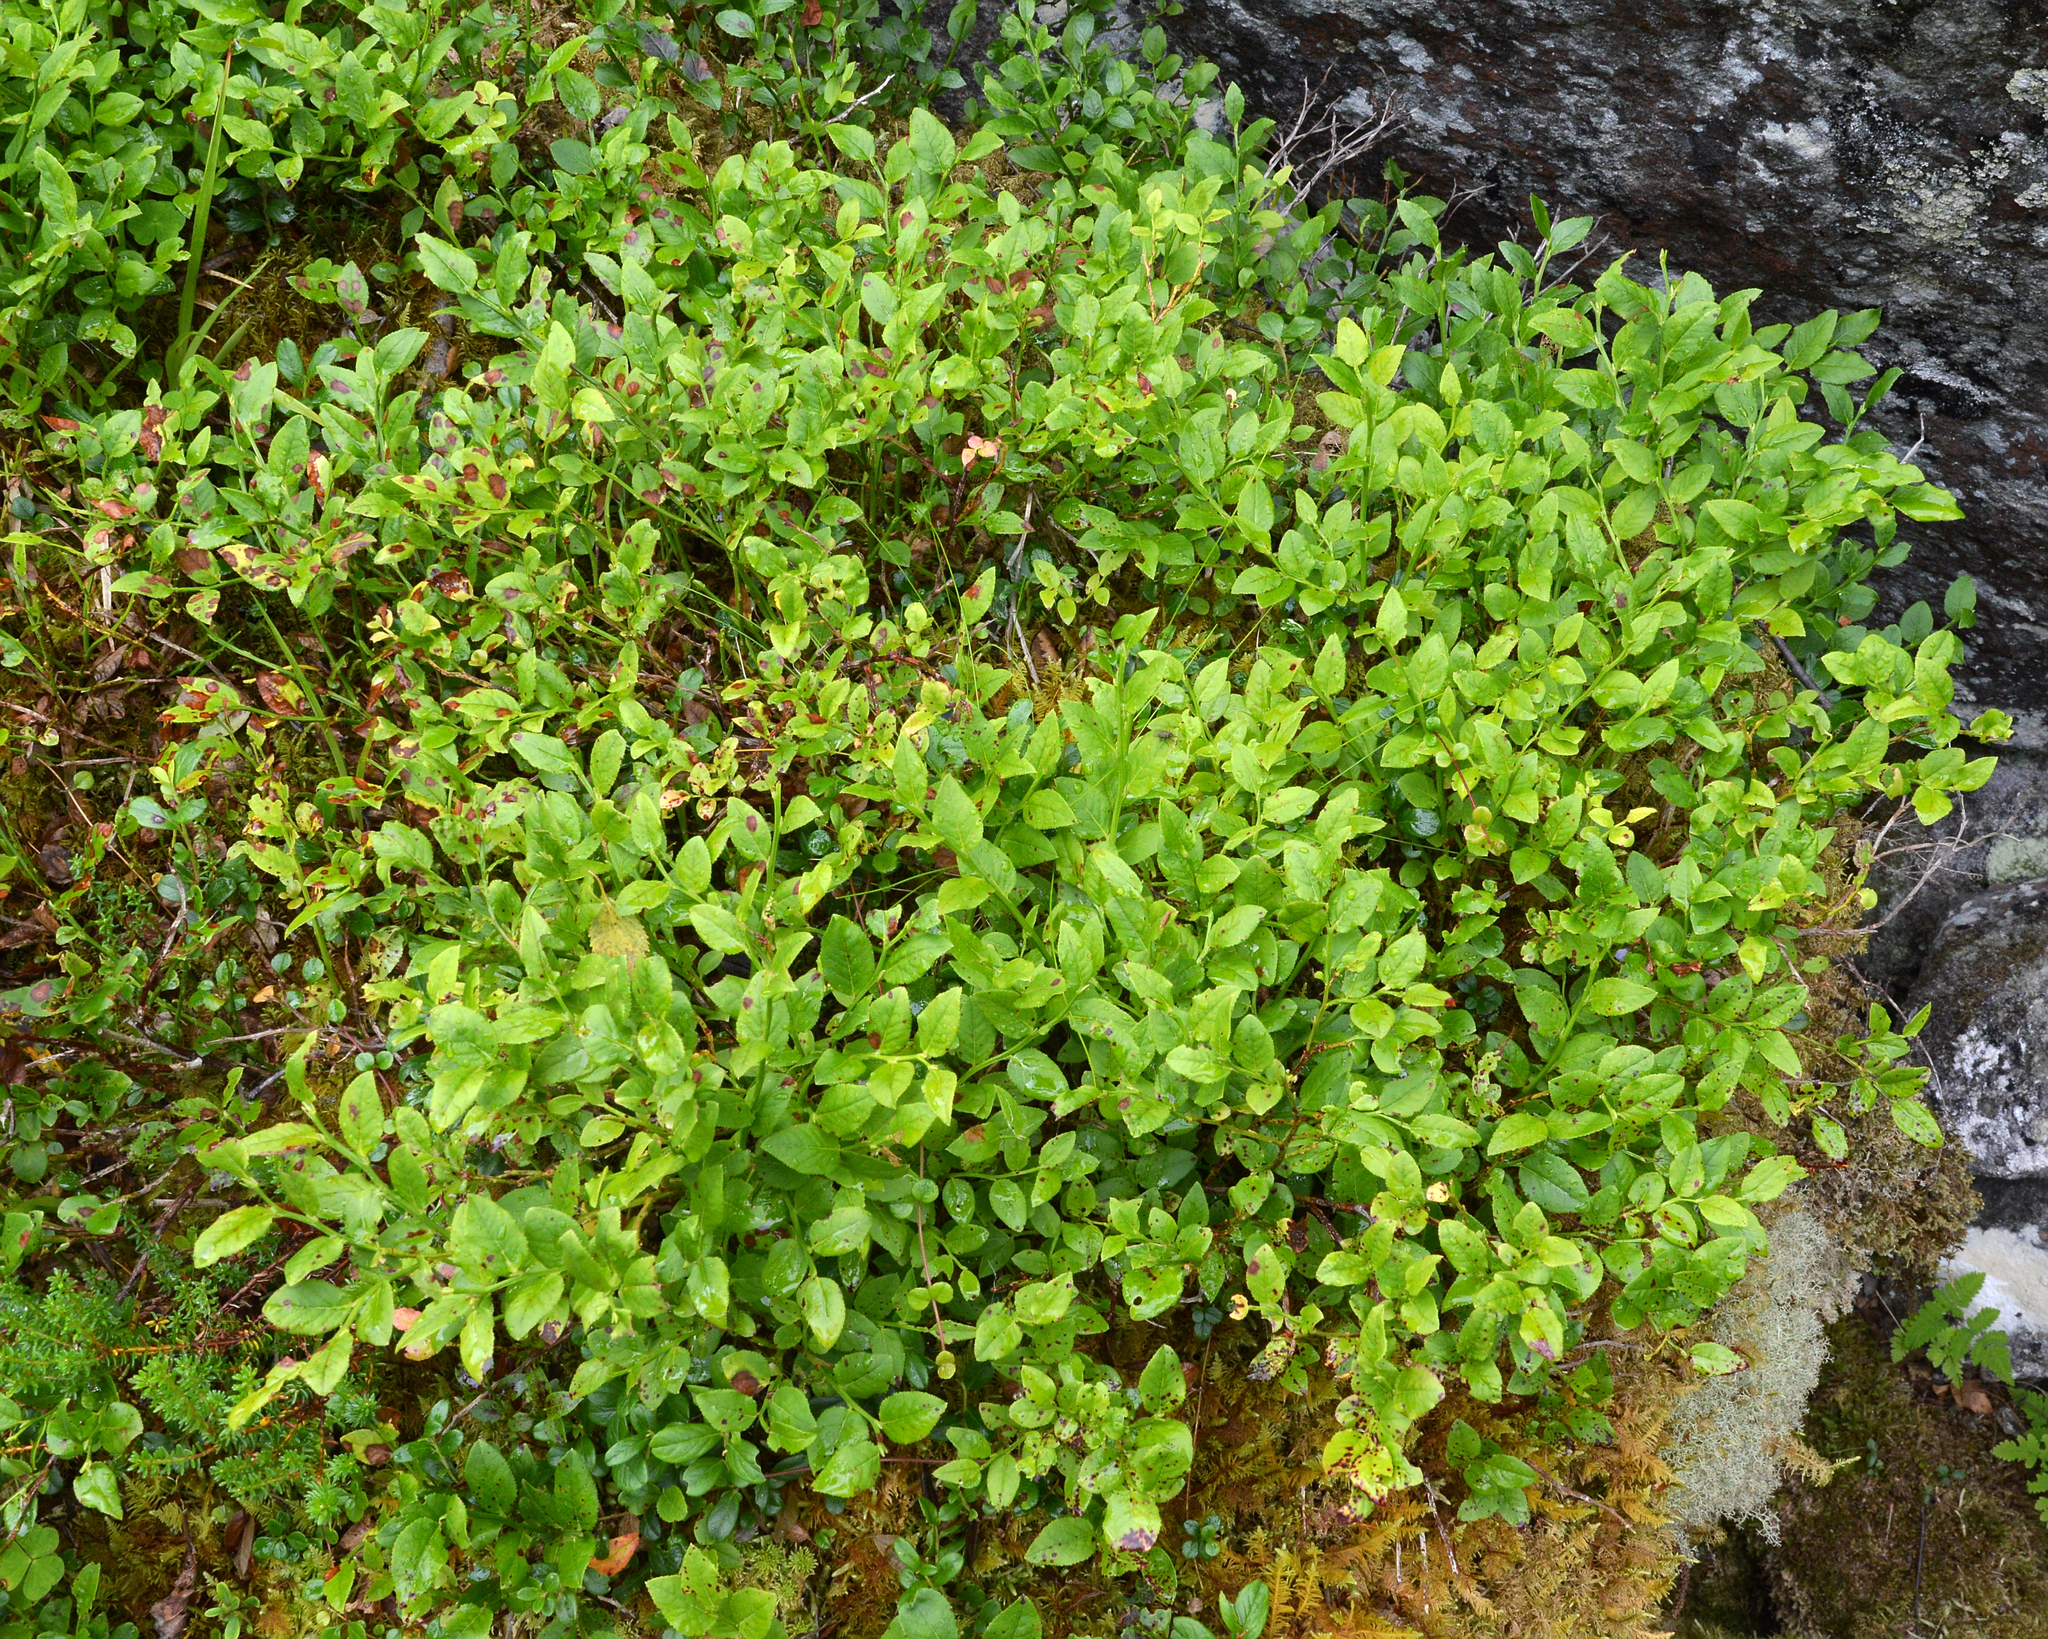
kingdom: Plantae
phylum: Tracheophyta
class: Magnoliopsida
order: Ericales
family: Ericaceae
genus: Vaccinium
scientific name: Vaccinium myrtillus
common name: Bilberry
